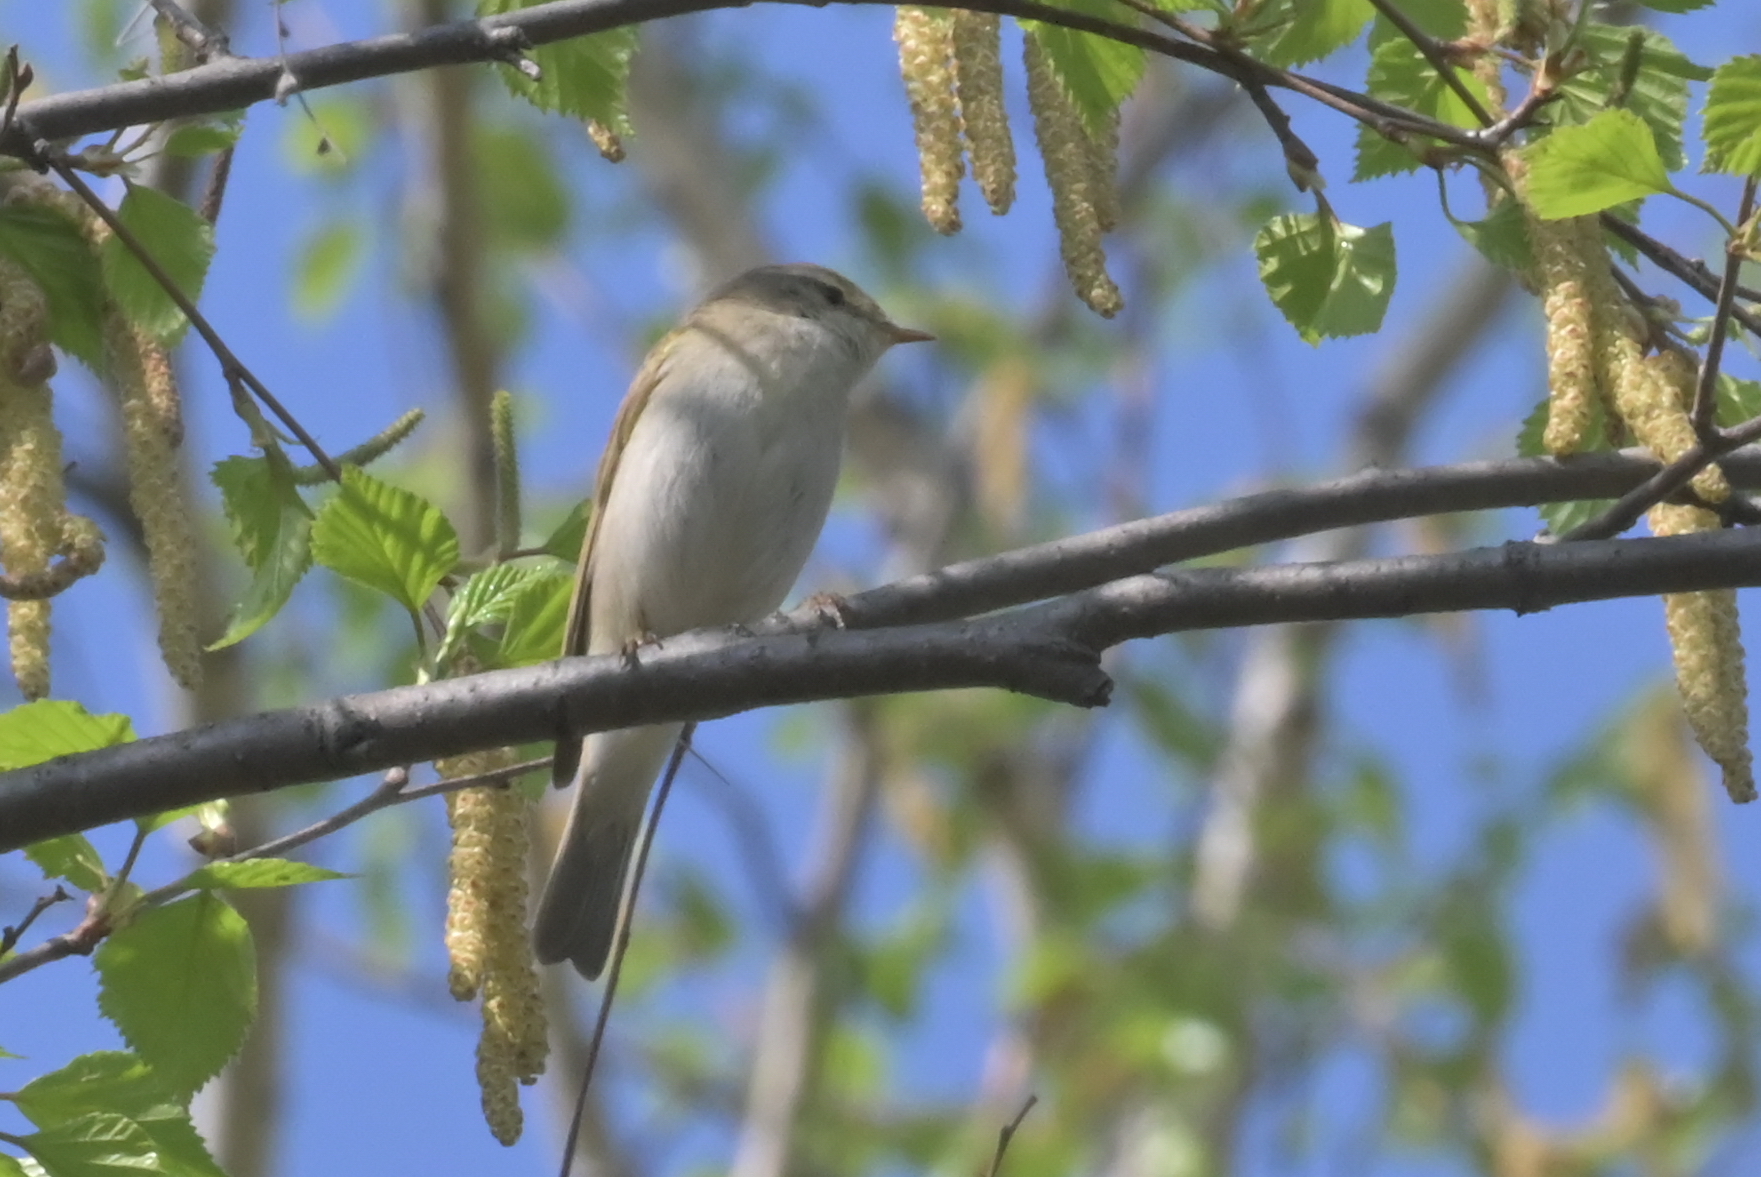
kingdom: Animalia
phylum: Chordata
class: Aves
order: Passeriformes
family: Phylloscopidae
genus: Phylloscopus
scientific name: Phylloscopus trochilus
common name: Willow warbler
